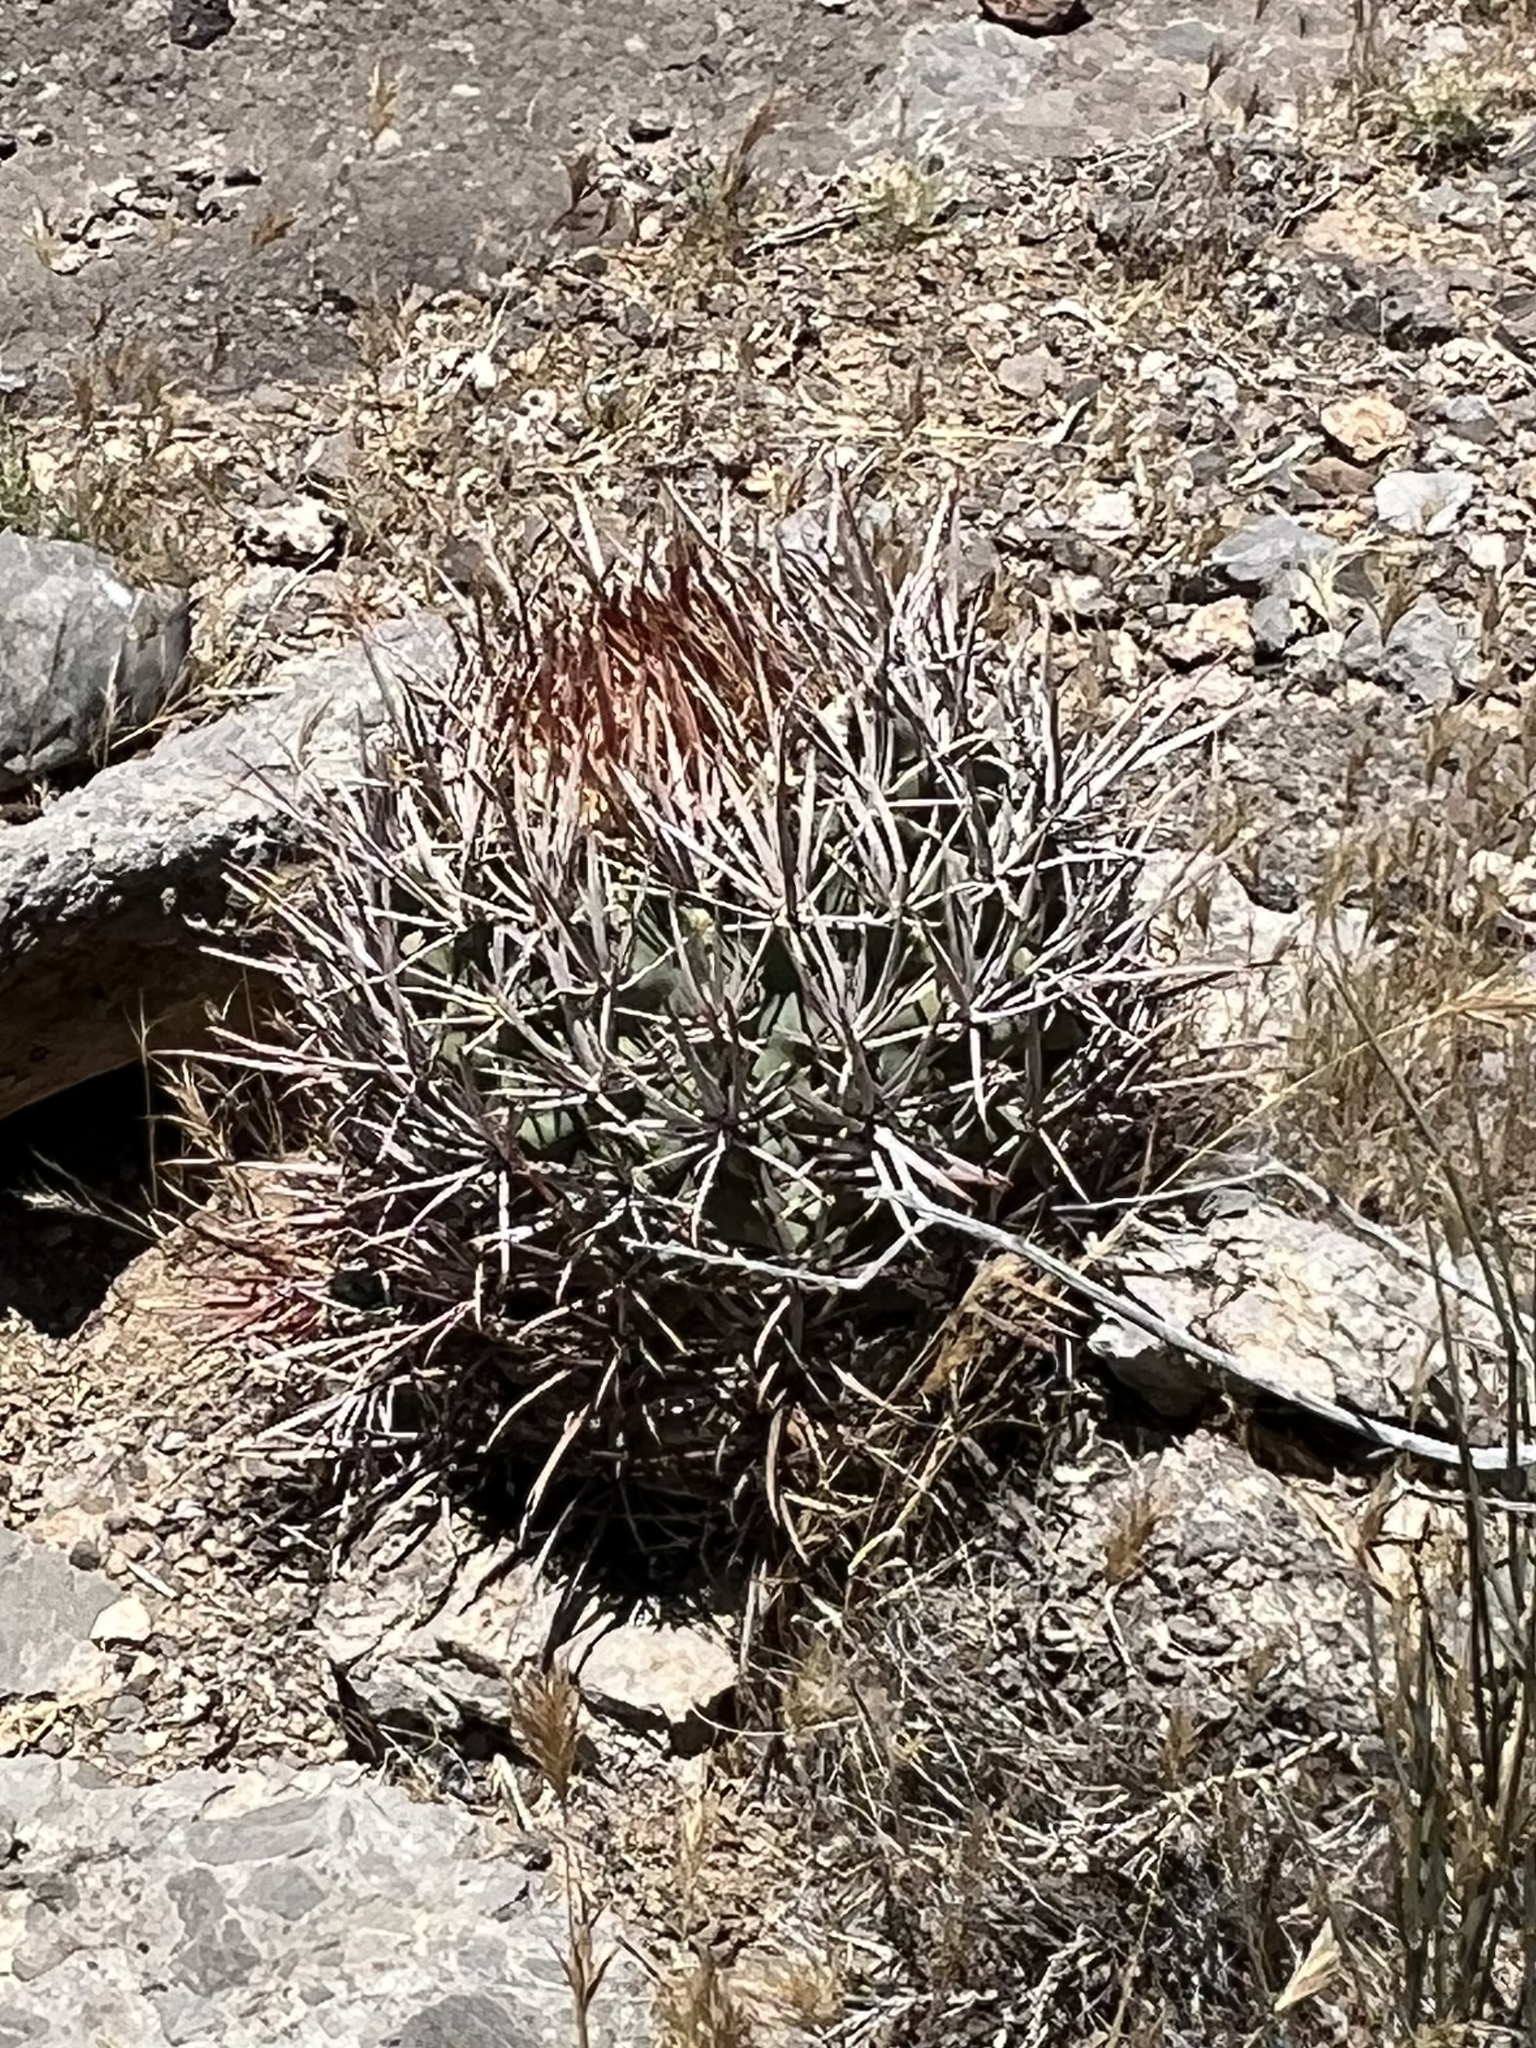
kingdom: Plantae
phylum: Tracheophyta
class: Magnoliopsida
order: Caryophyllales
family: Cactaceae
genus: Echinocactus
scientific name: Echinocactus polycephalus
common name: Cottontop cactus
